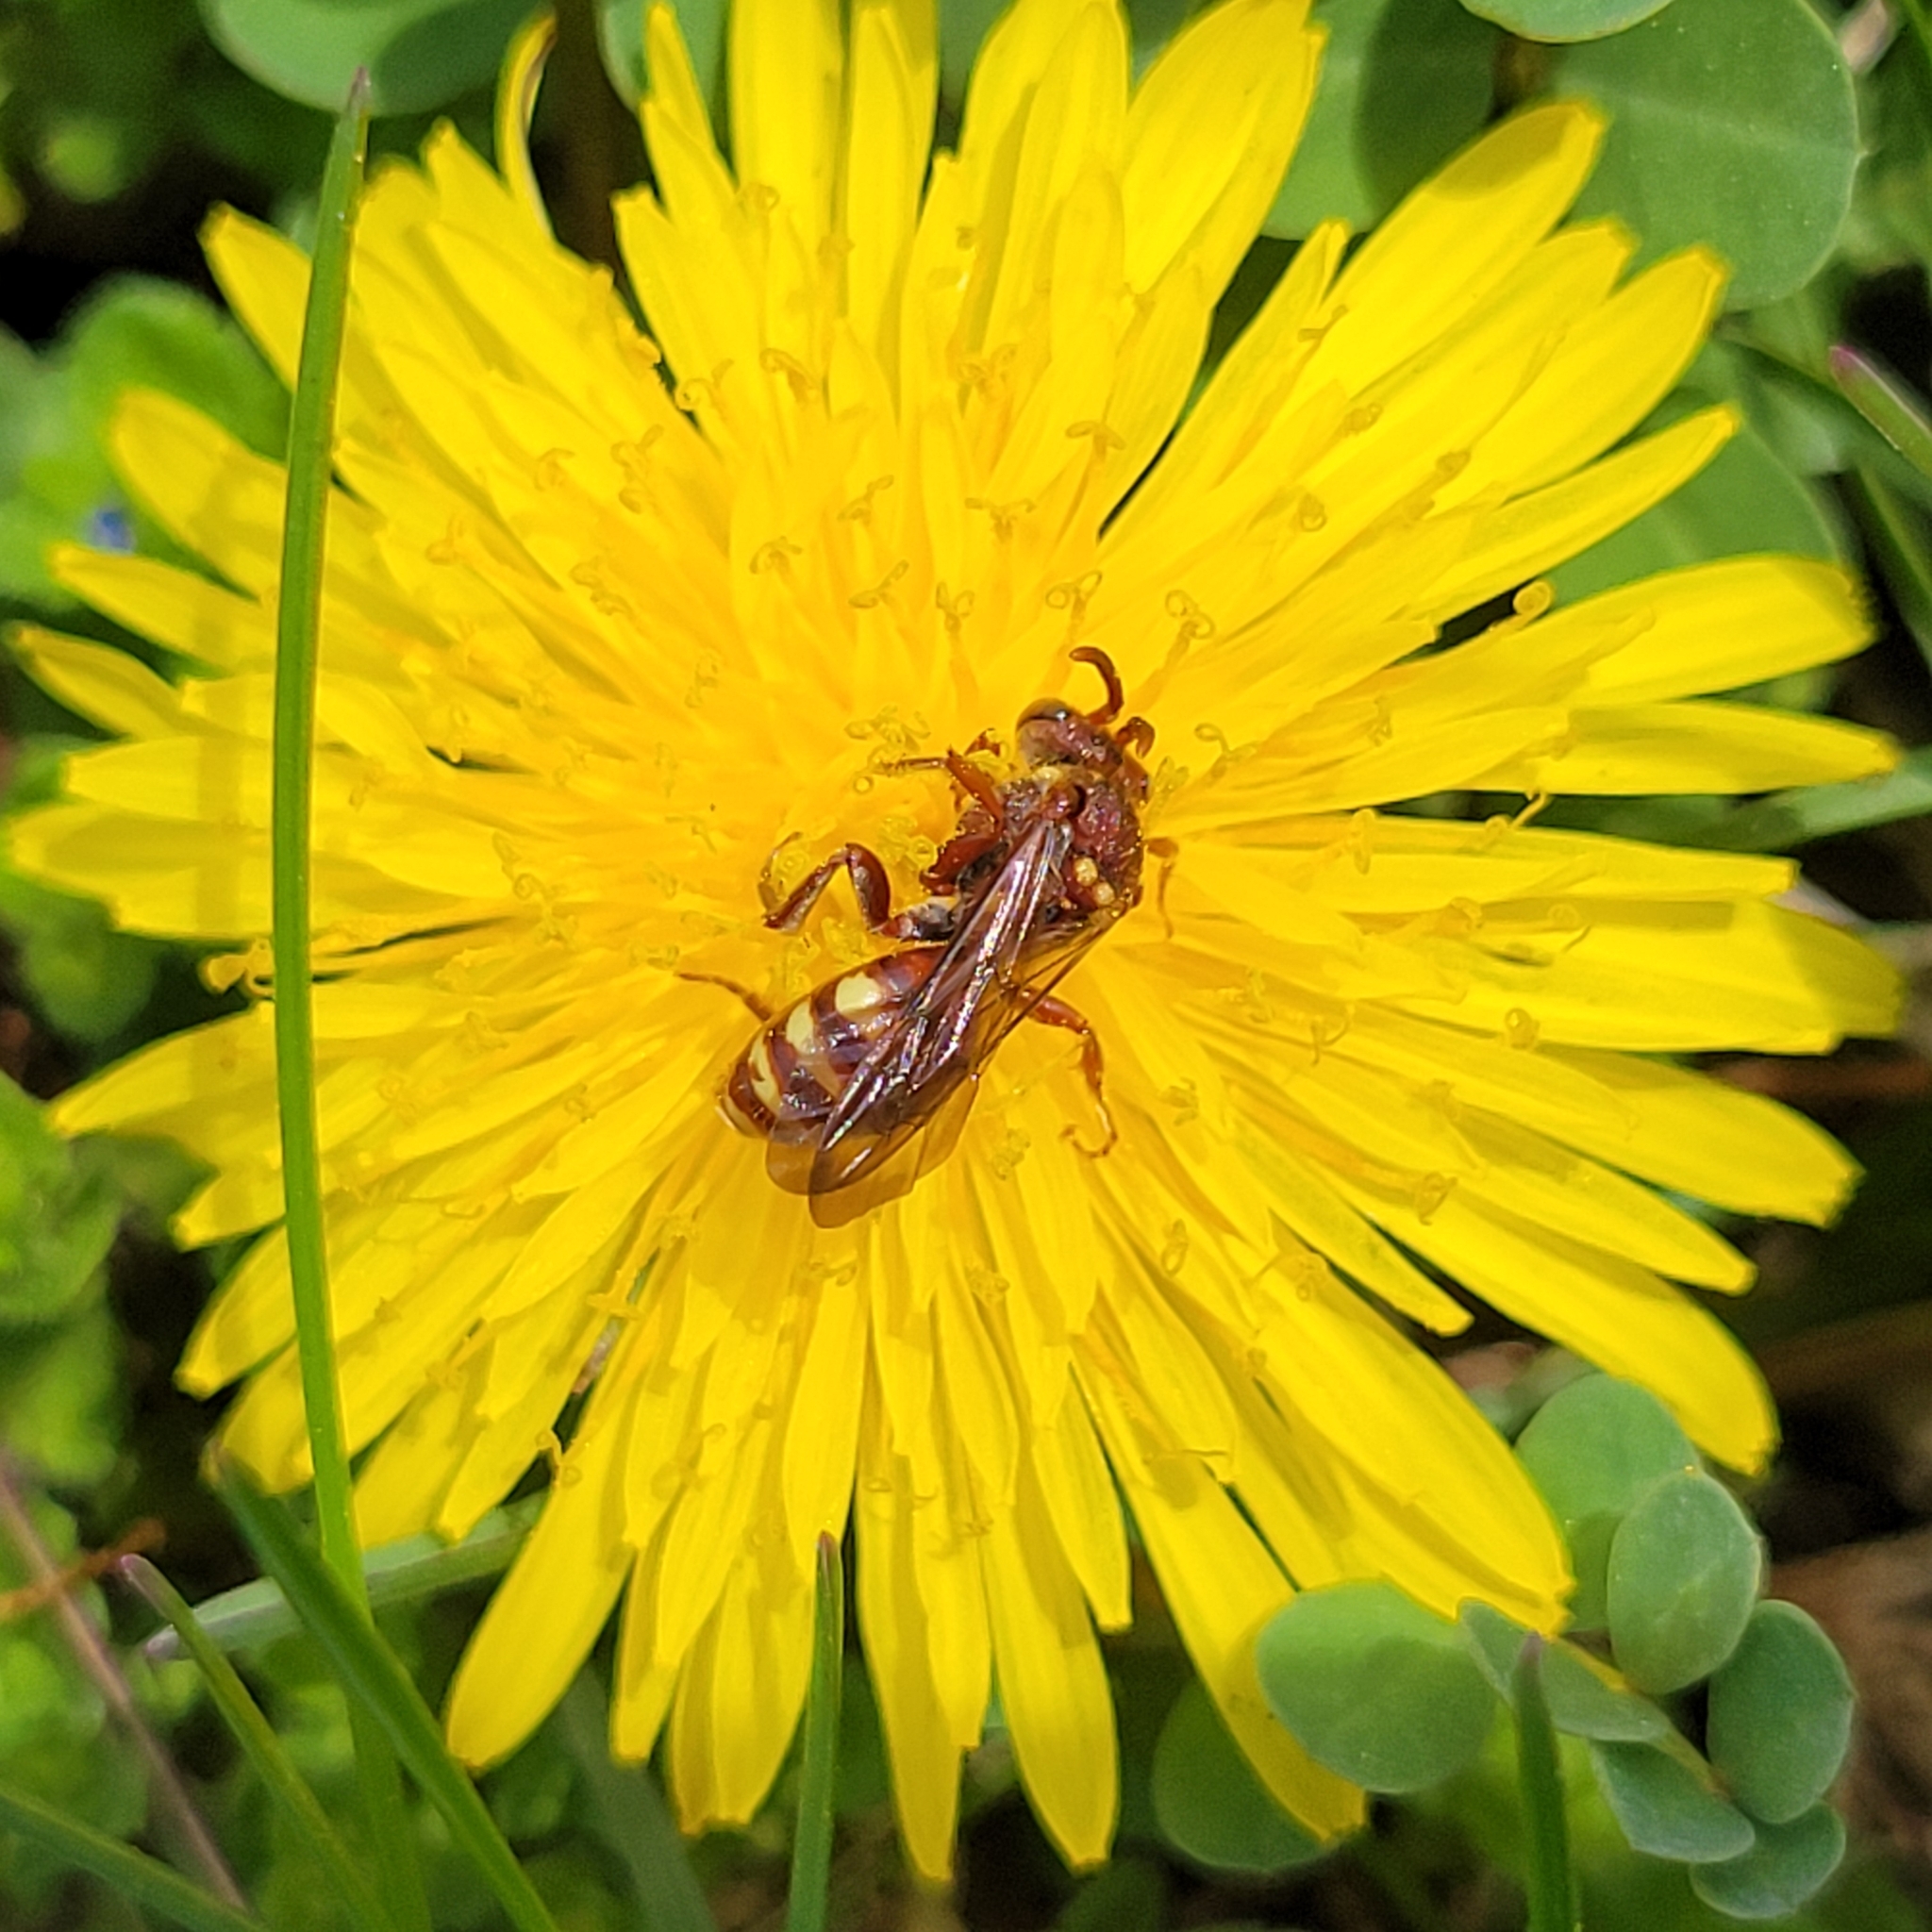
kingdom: Animalia
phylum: Arthropoda
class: Insecta
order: Hymenoptera
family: Apidae
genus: Nomada
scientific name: Nomada imbricata
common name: Imbricate cuckoo nomad bee
